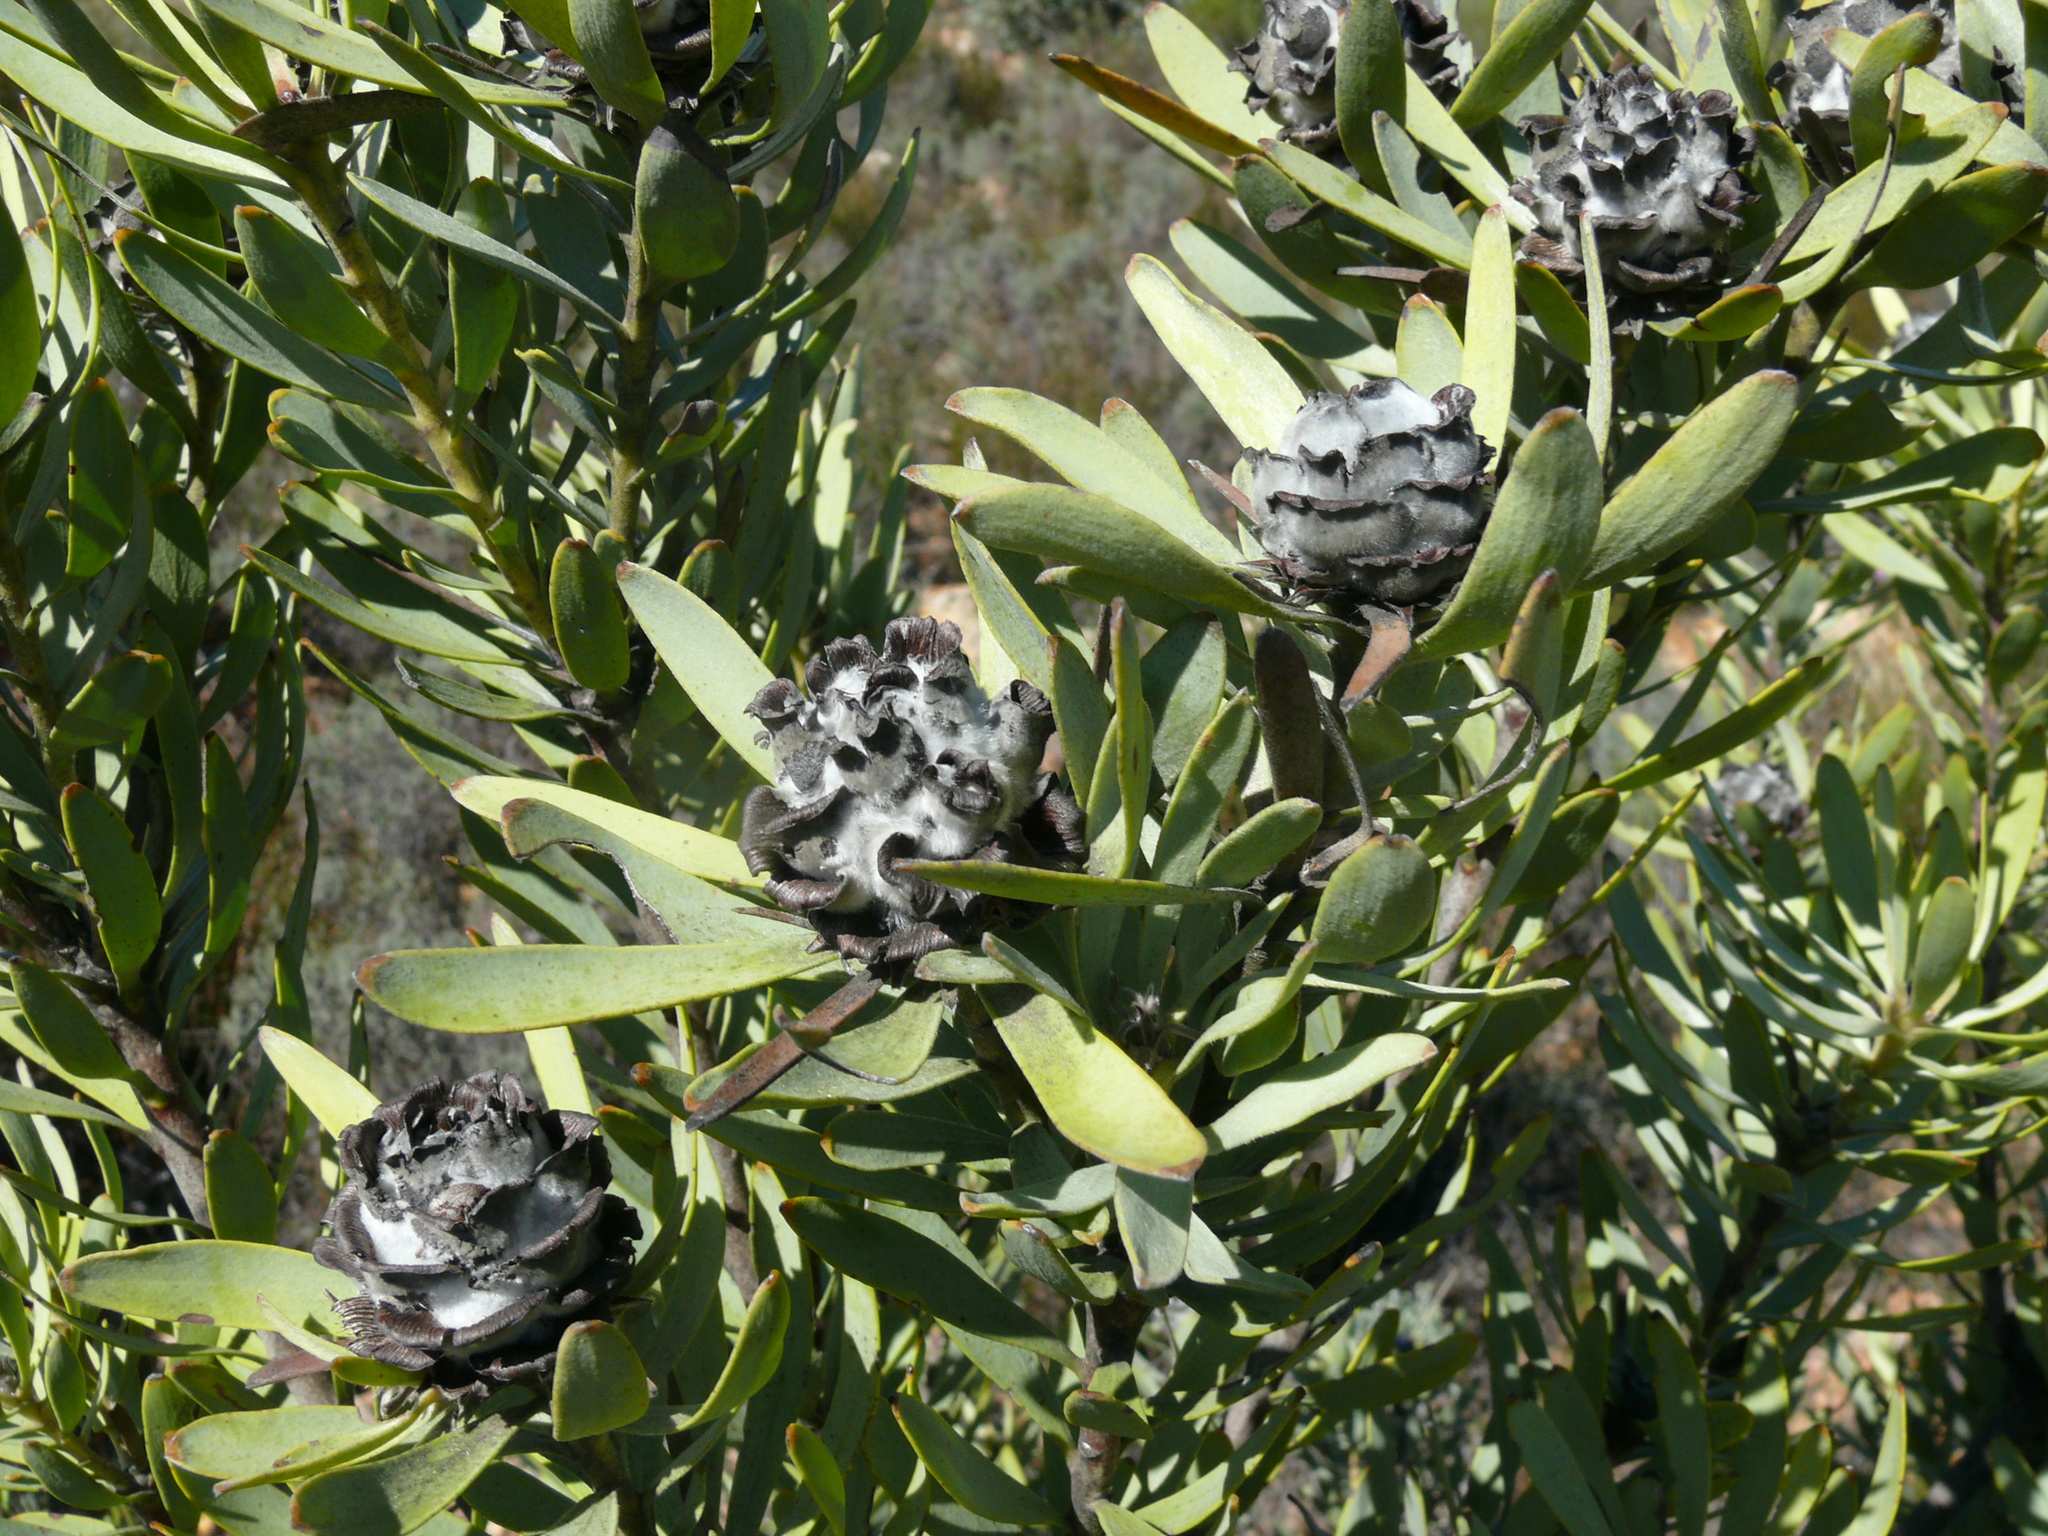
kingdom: Plantae
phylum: Tracheophyta
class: Magnoliopsida
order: Proteales
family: Proteaceae
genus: Leucadendron
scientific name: Leucadendron pubescens
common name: Grey conebush
